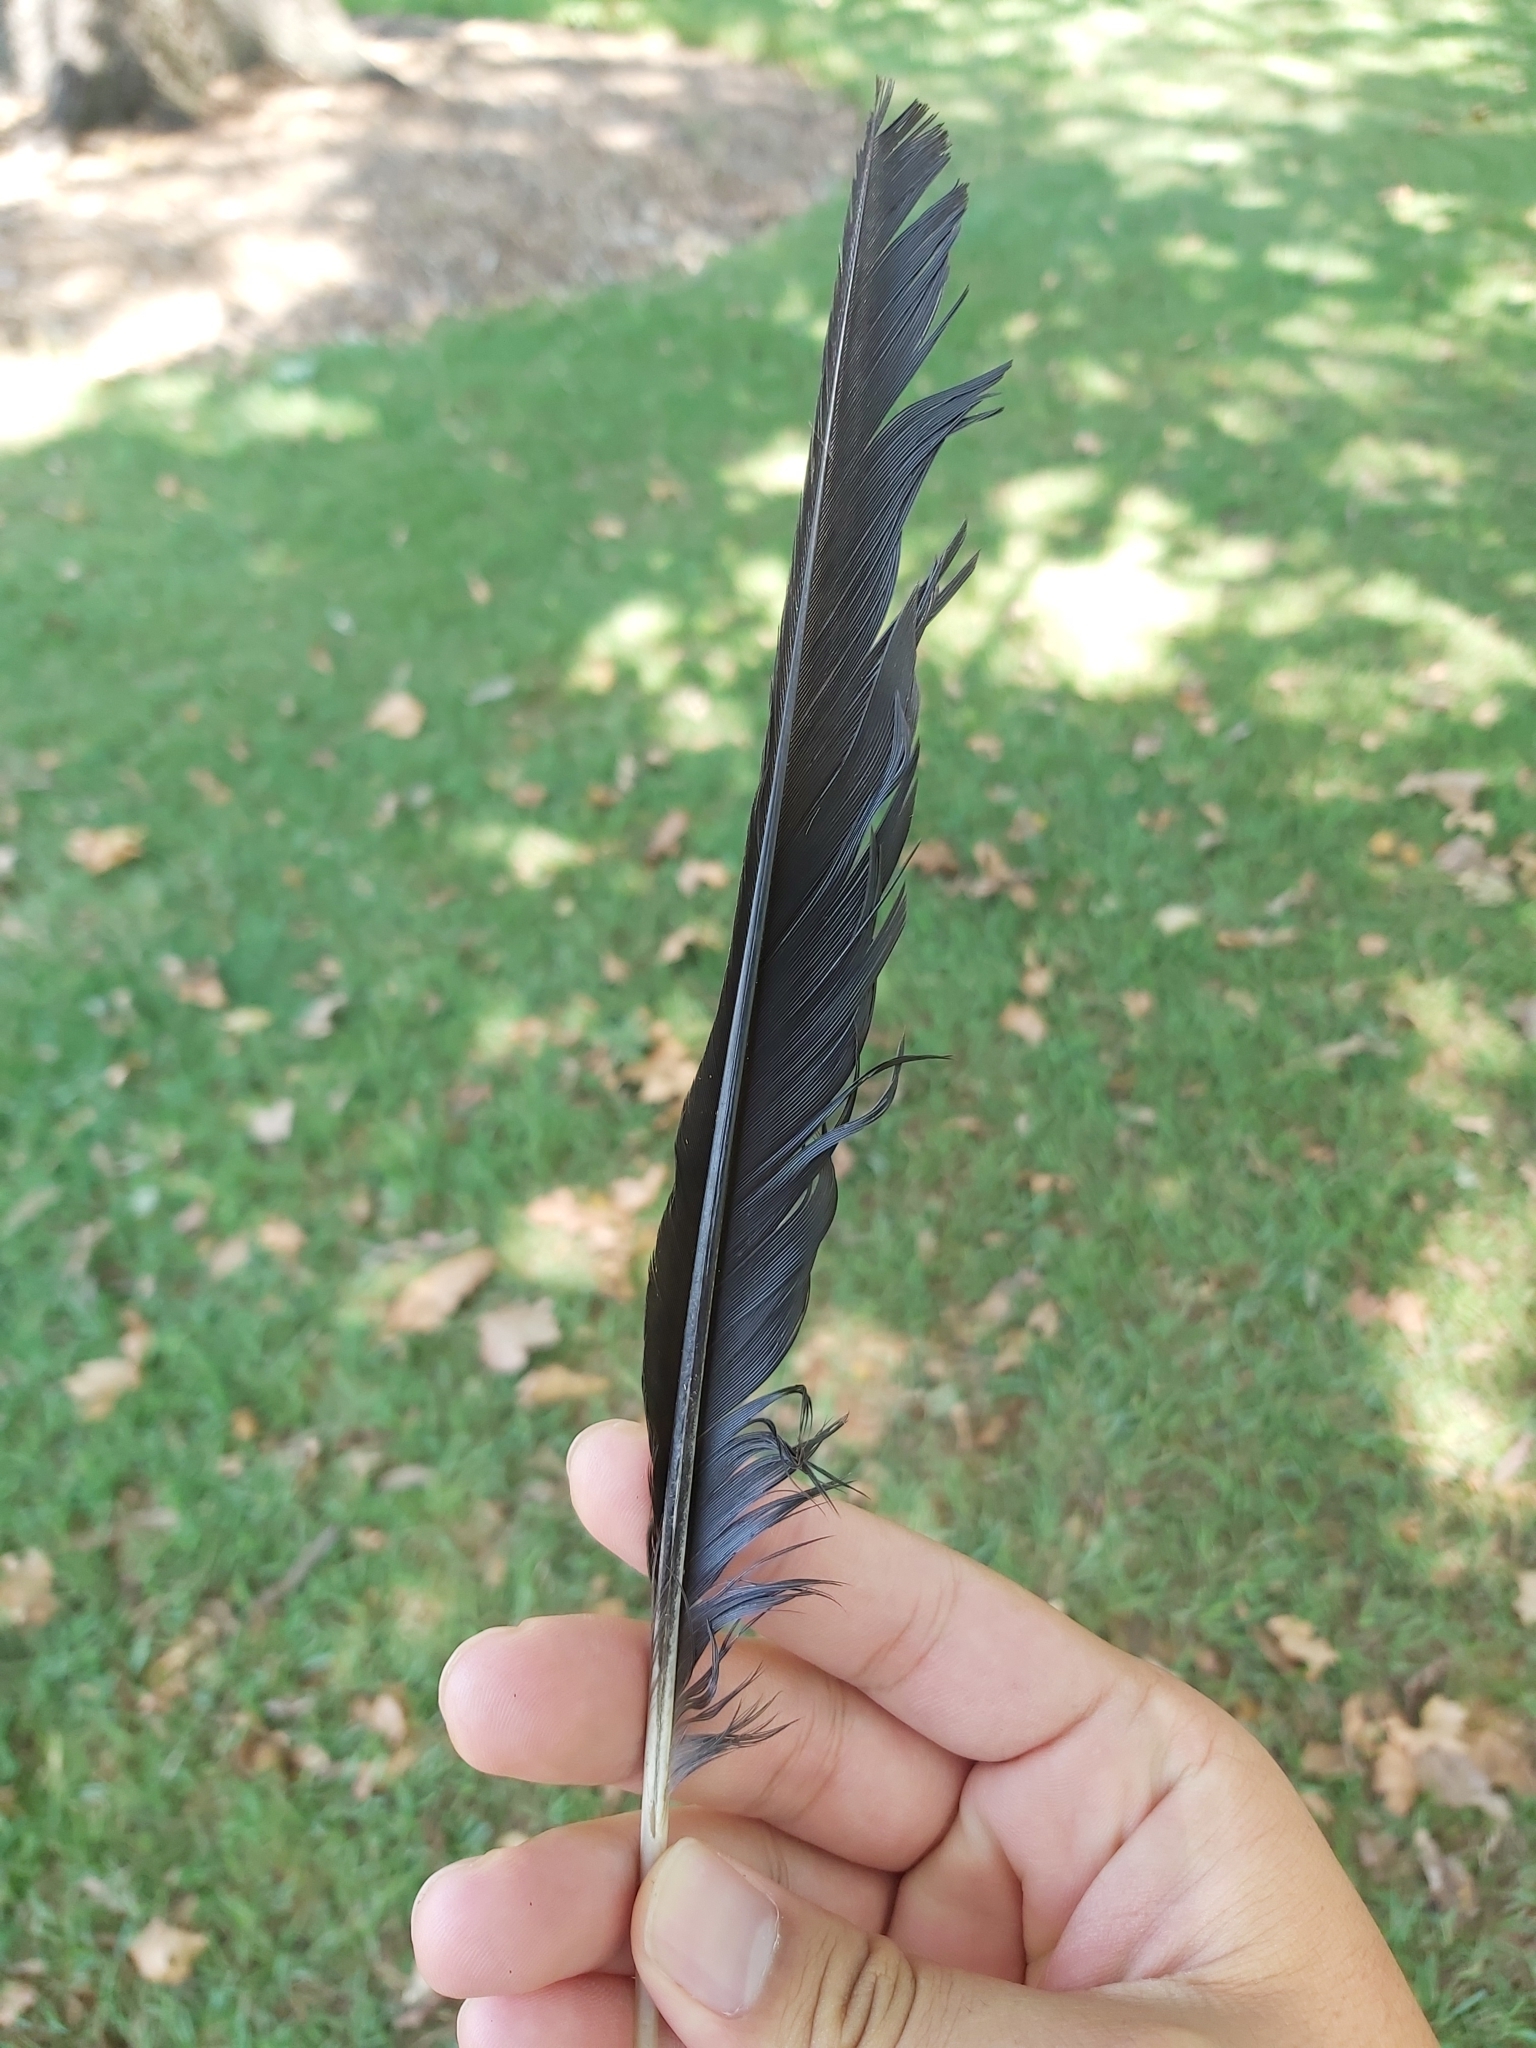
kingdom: Animalia
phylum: Chordata
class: Aves
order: Passeriformes
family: Cracticidae
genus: Gymnorhina
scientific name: Gymnorhina tibicen
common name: Australian magpie
